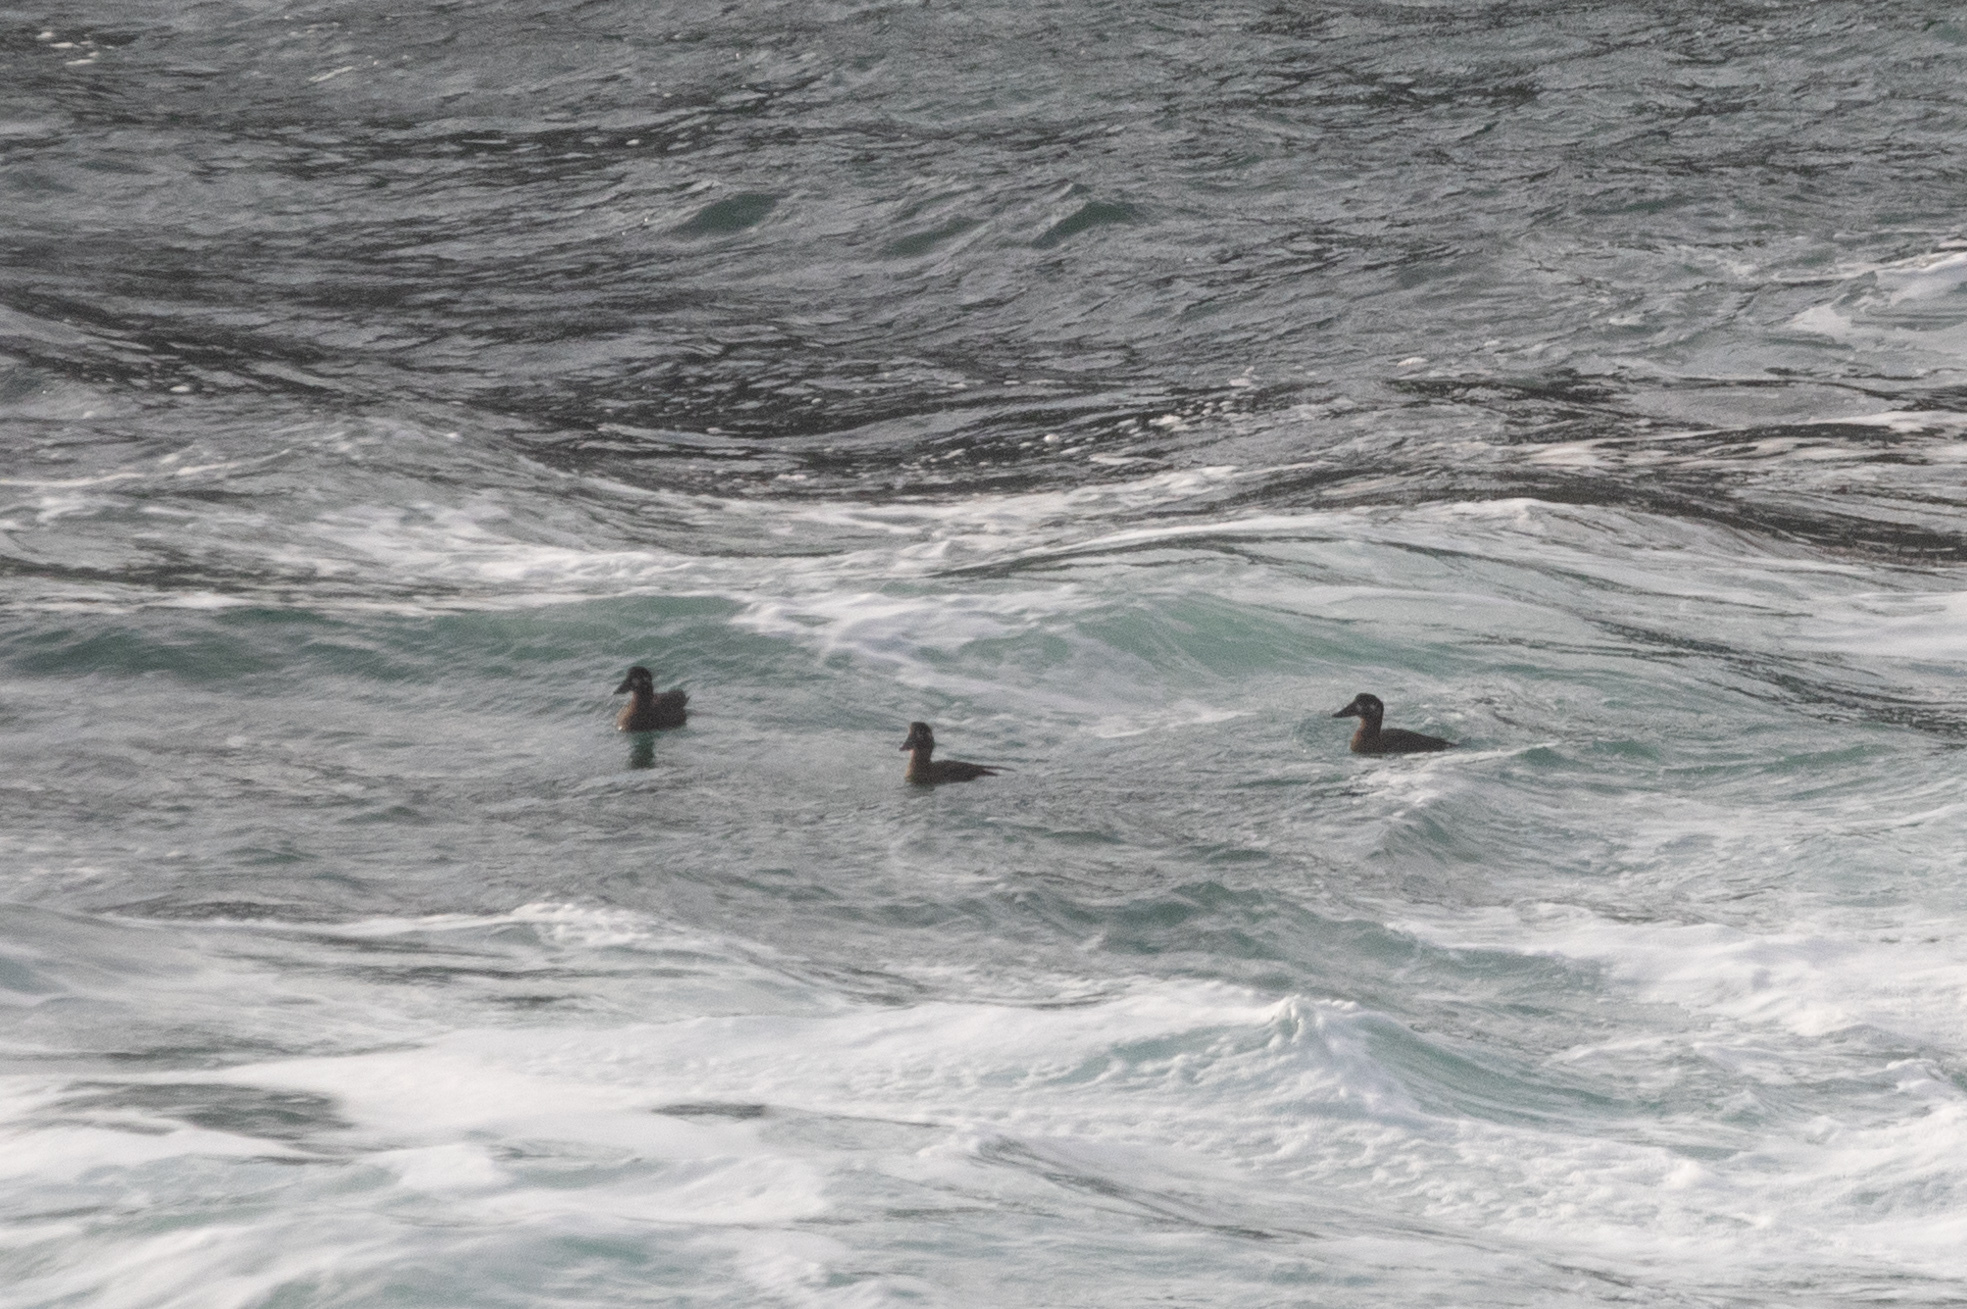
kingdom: Animalia
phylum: Chordata
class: Aves
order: Anseriformes
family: Anatidae
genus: Melanitta
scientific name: Melanitta perspicillata
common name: Surf scoter
